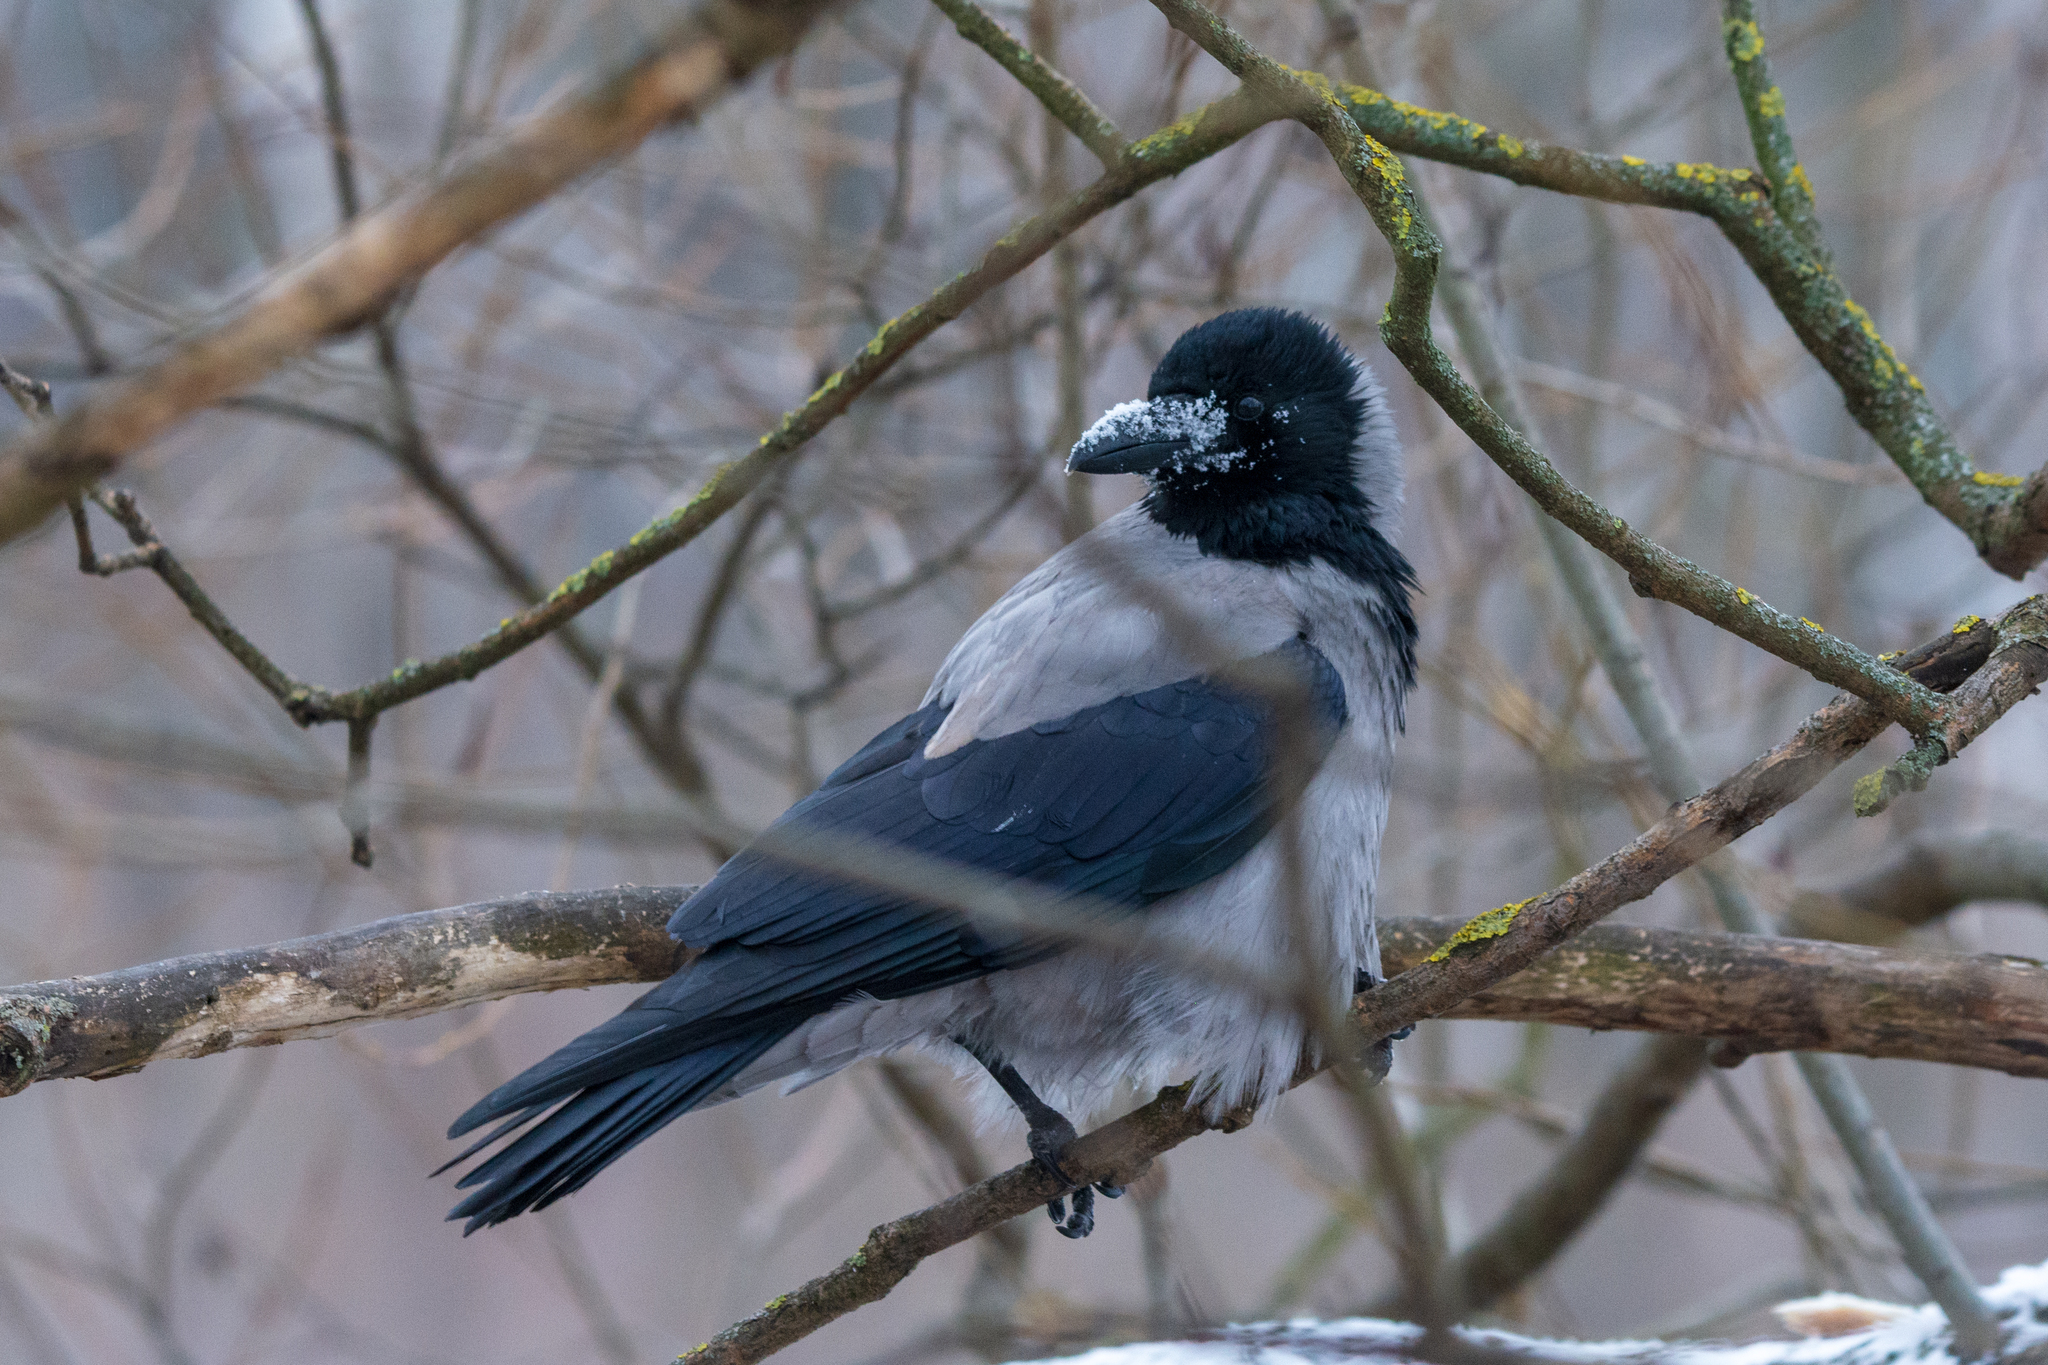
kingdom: Animalia
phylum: Chordata
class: Aves
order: Passeriformes
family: Corvidae
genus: Corvus
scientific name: Corvus cornix
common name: Hooded crow
